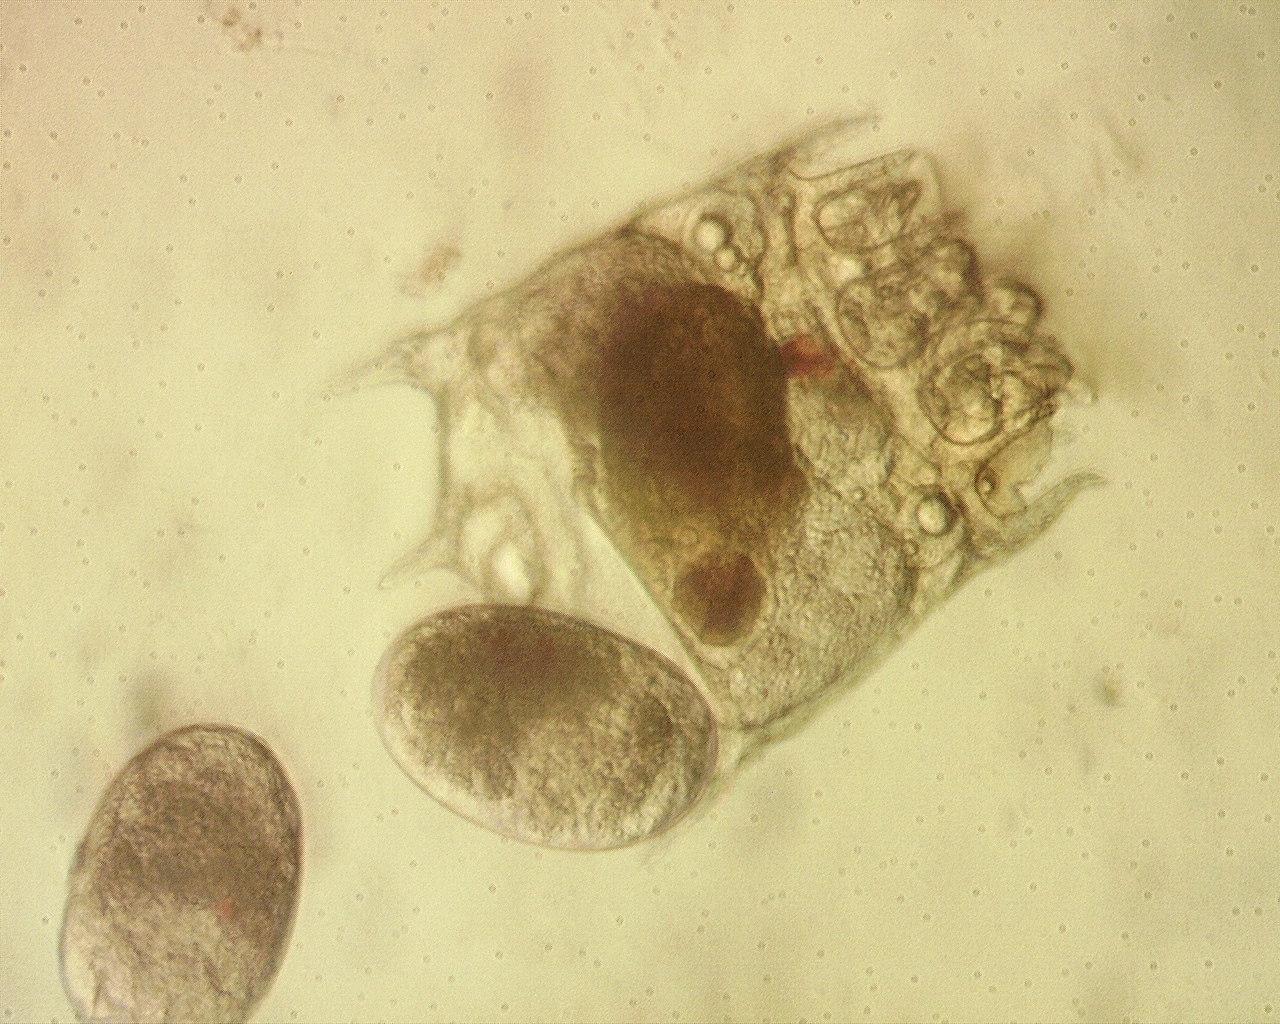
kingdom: Animalia
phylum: Rotifera
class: Eurotatoria
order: Ploima
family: Brachionidae
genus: Plationus
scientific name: Plationus patulus
